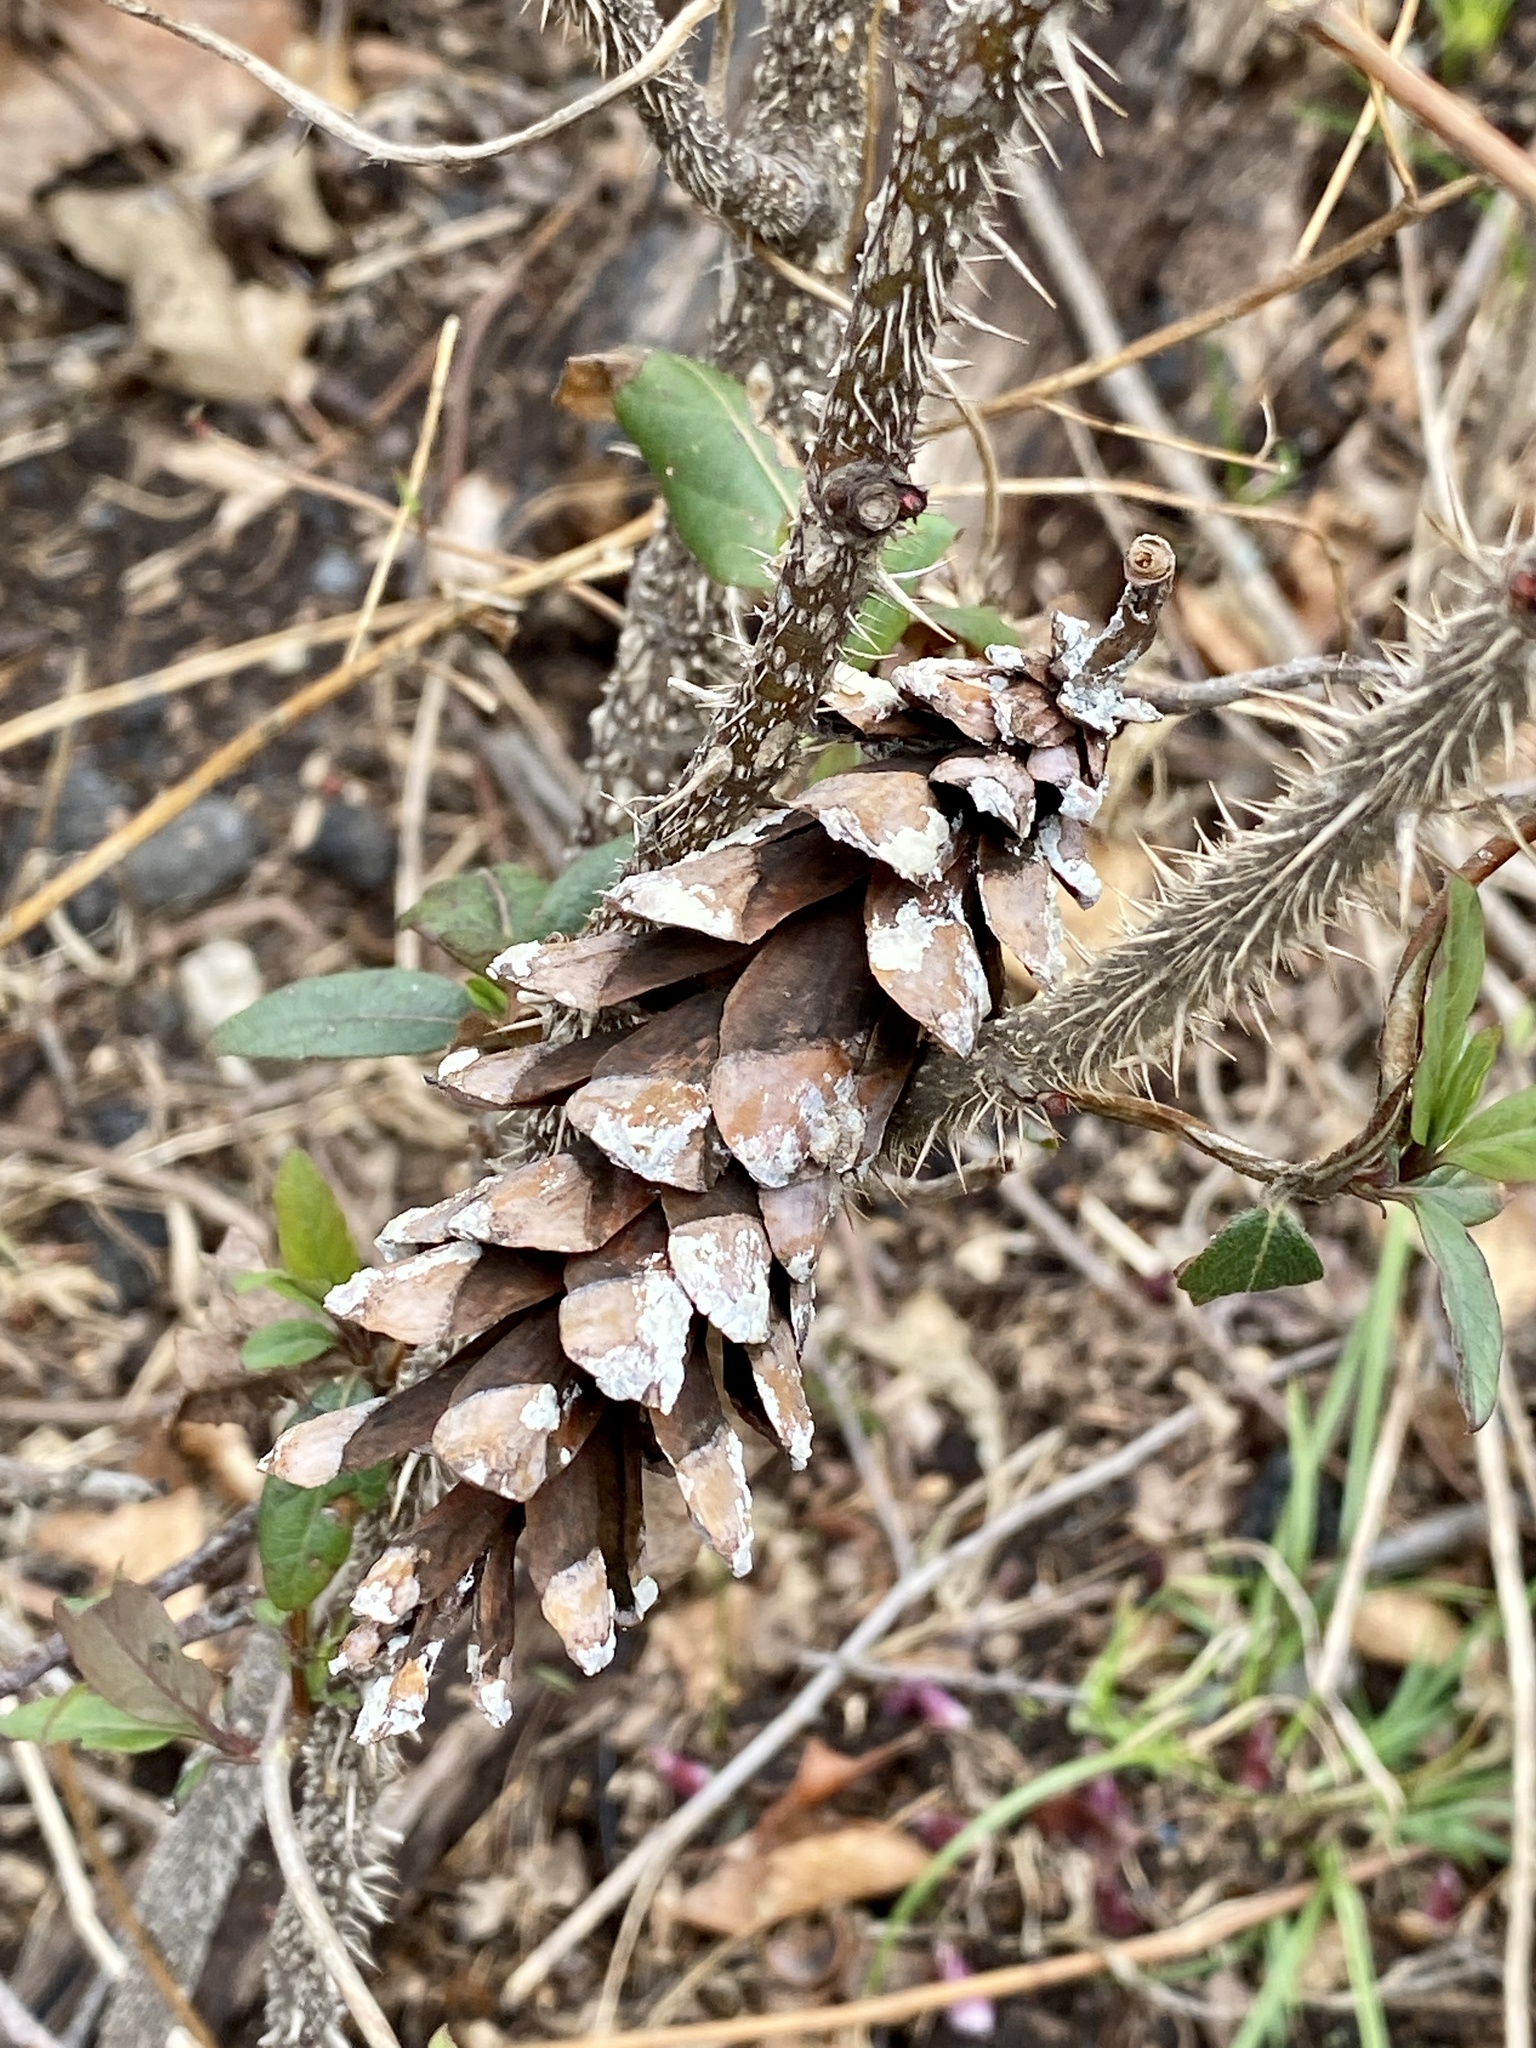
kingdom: Plantae
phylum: Tracheophyta
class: Pinopsida
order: Pinales
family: Pinaceae
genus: Pinus
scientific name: Pinus strobus
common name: Weymouth pine
